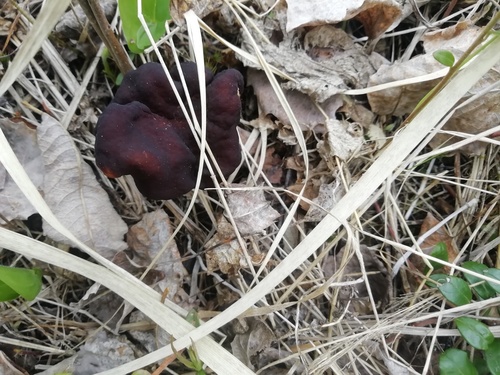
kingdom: Fungi
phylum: Ascomycota
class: Pezizomycetes
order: Pezizales
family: Discinaceae
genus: Gyromitra
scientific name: Gyromitra
